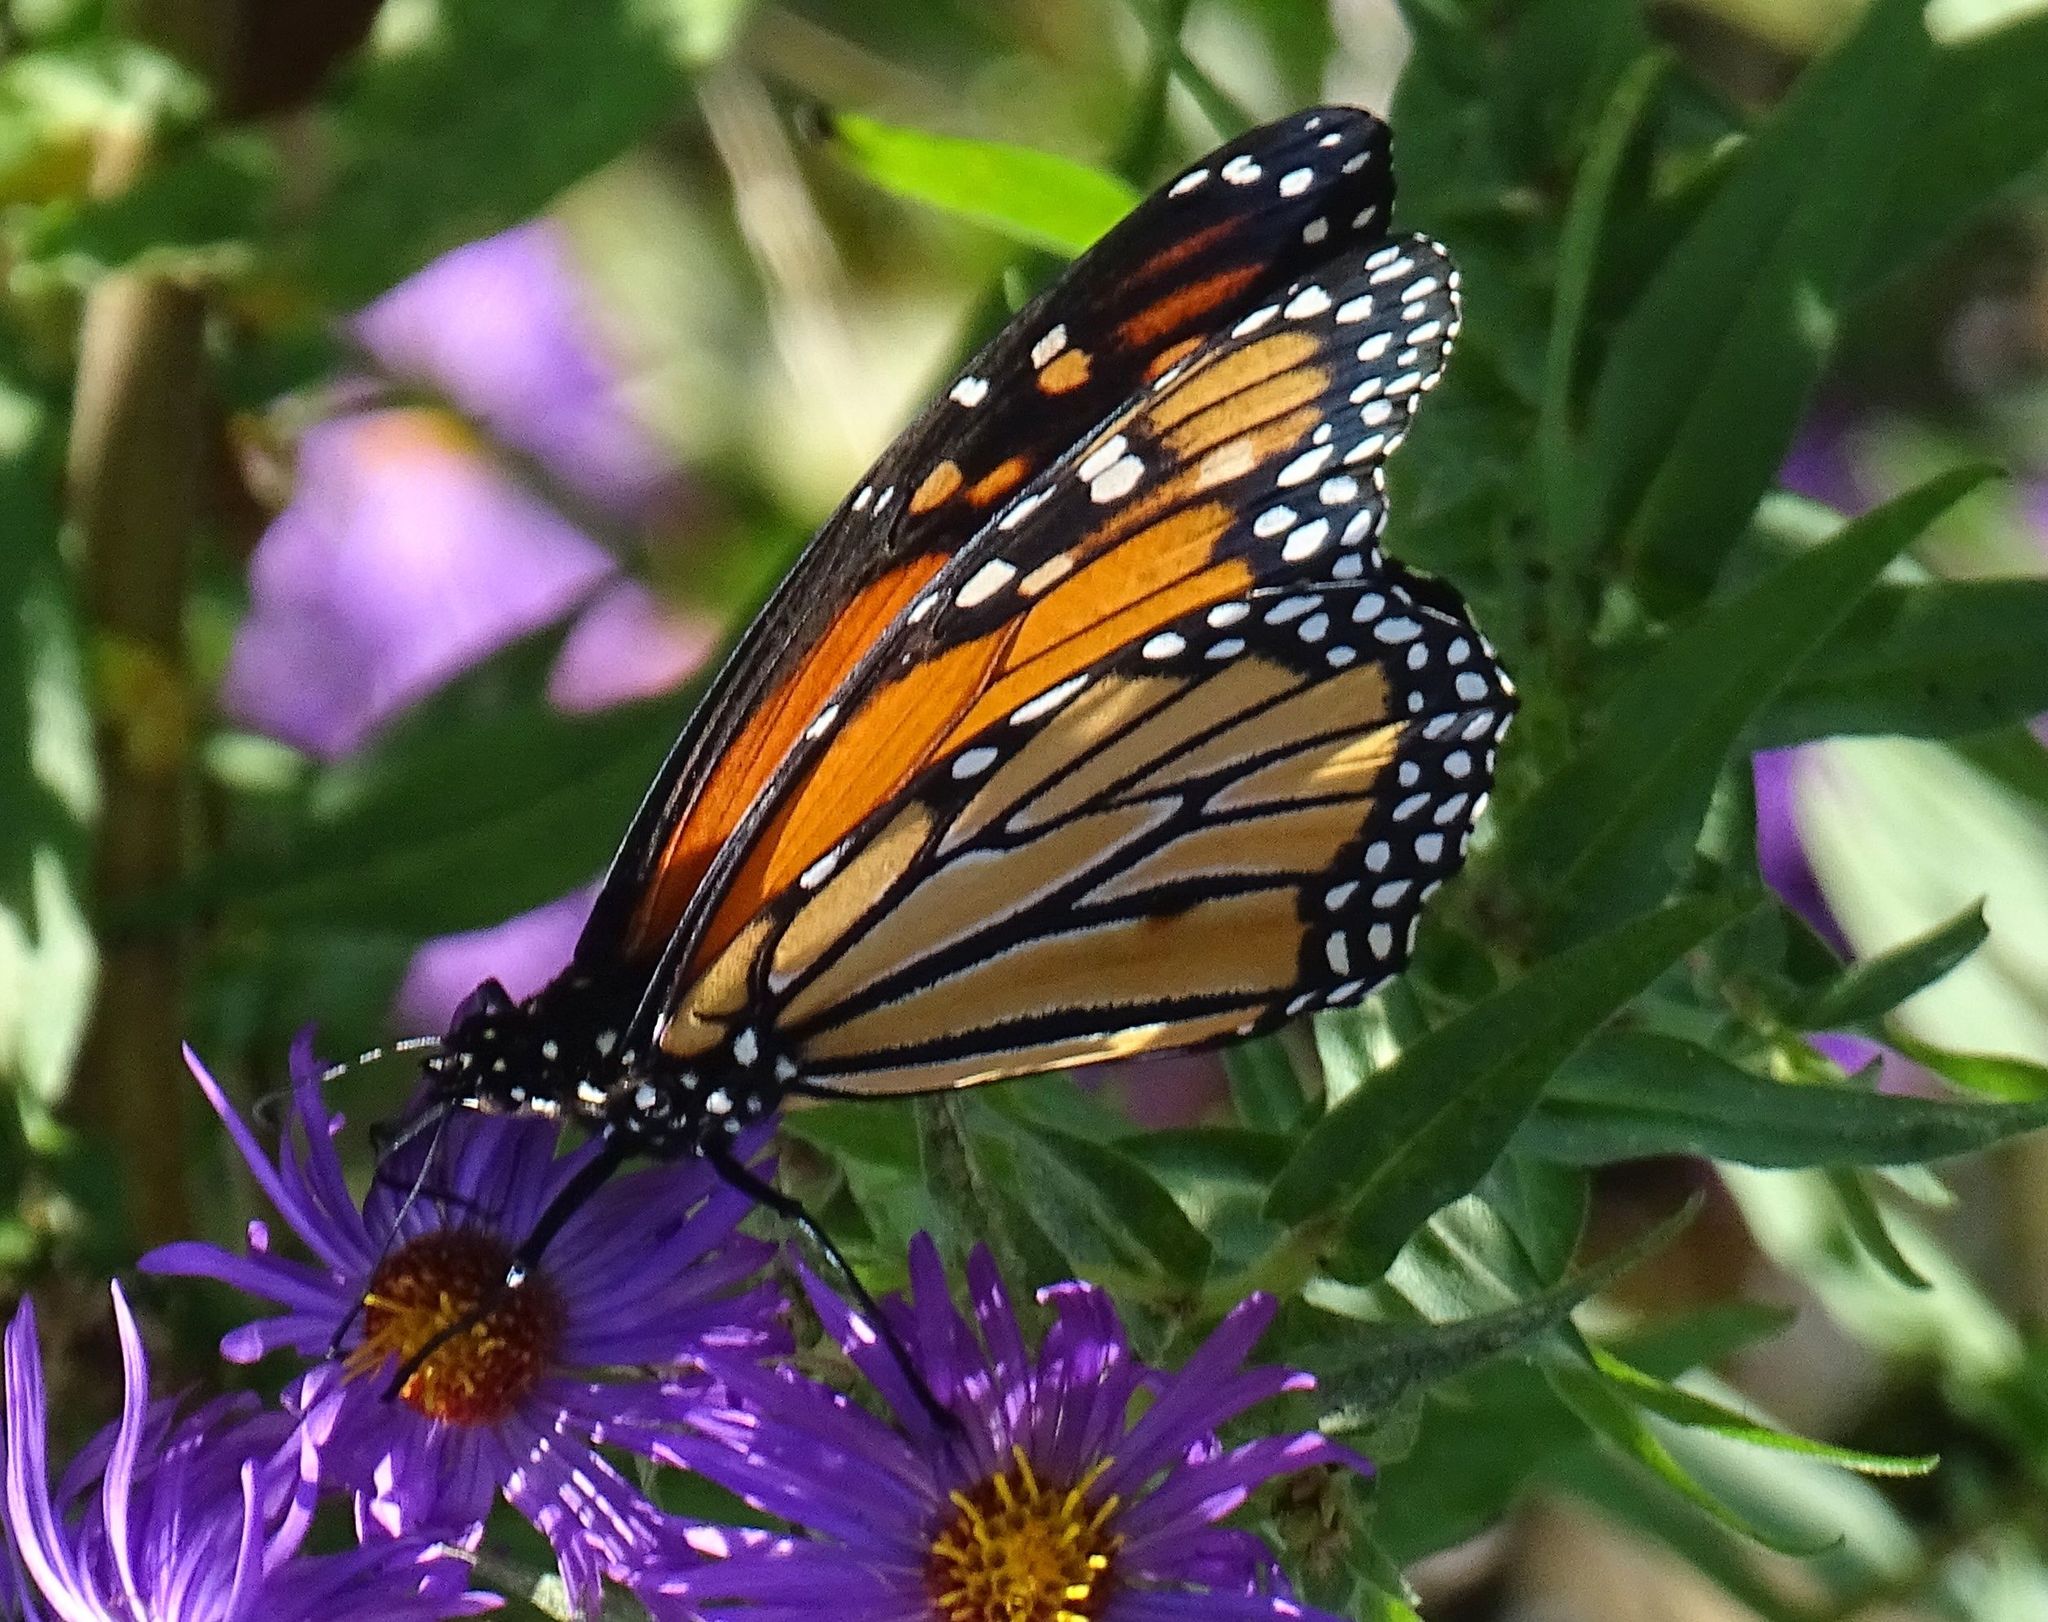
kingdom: Animalia
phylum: Arthropoda
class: Insecta
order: Lepidoptera
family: Nymphalidae
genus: Danaus
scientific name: Danaus plexippus
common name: Monarch
